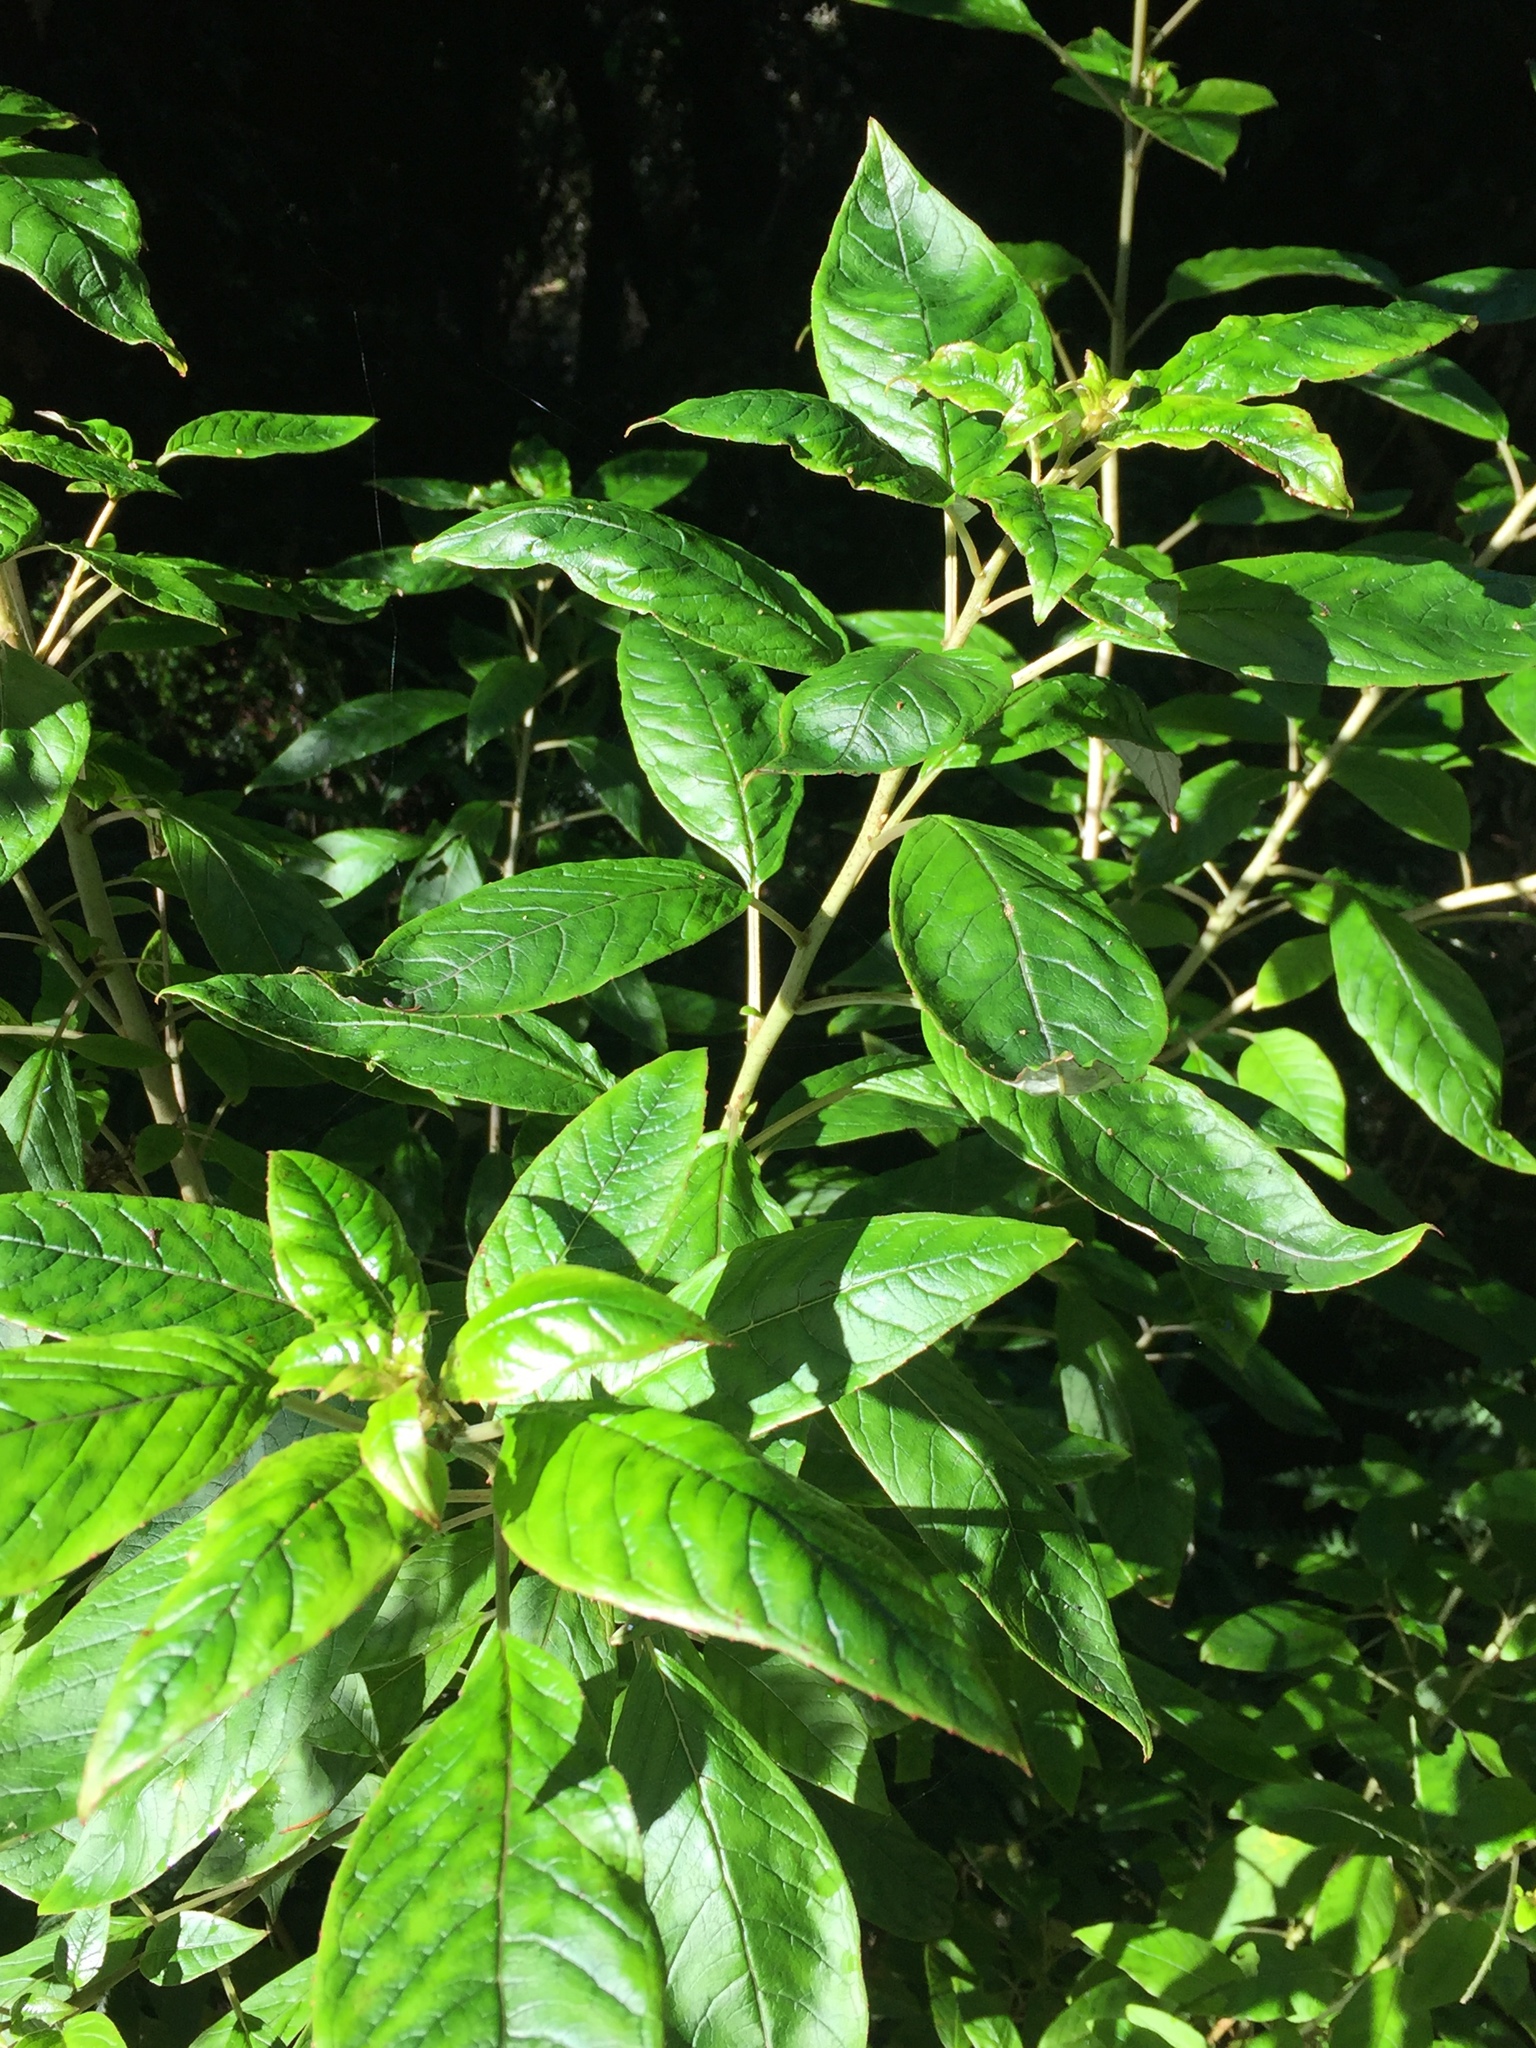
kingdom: Plantae
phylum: Tracheophyta
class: Magnoliopsida
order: Myrtales
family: Onagraceae
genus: Fuchsia
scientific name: Fuchsia excorticata
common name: Tree fuchsia
